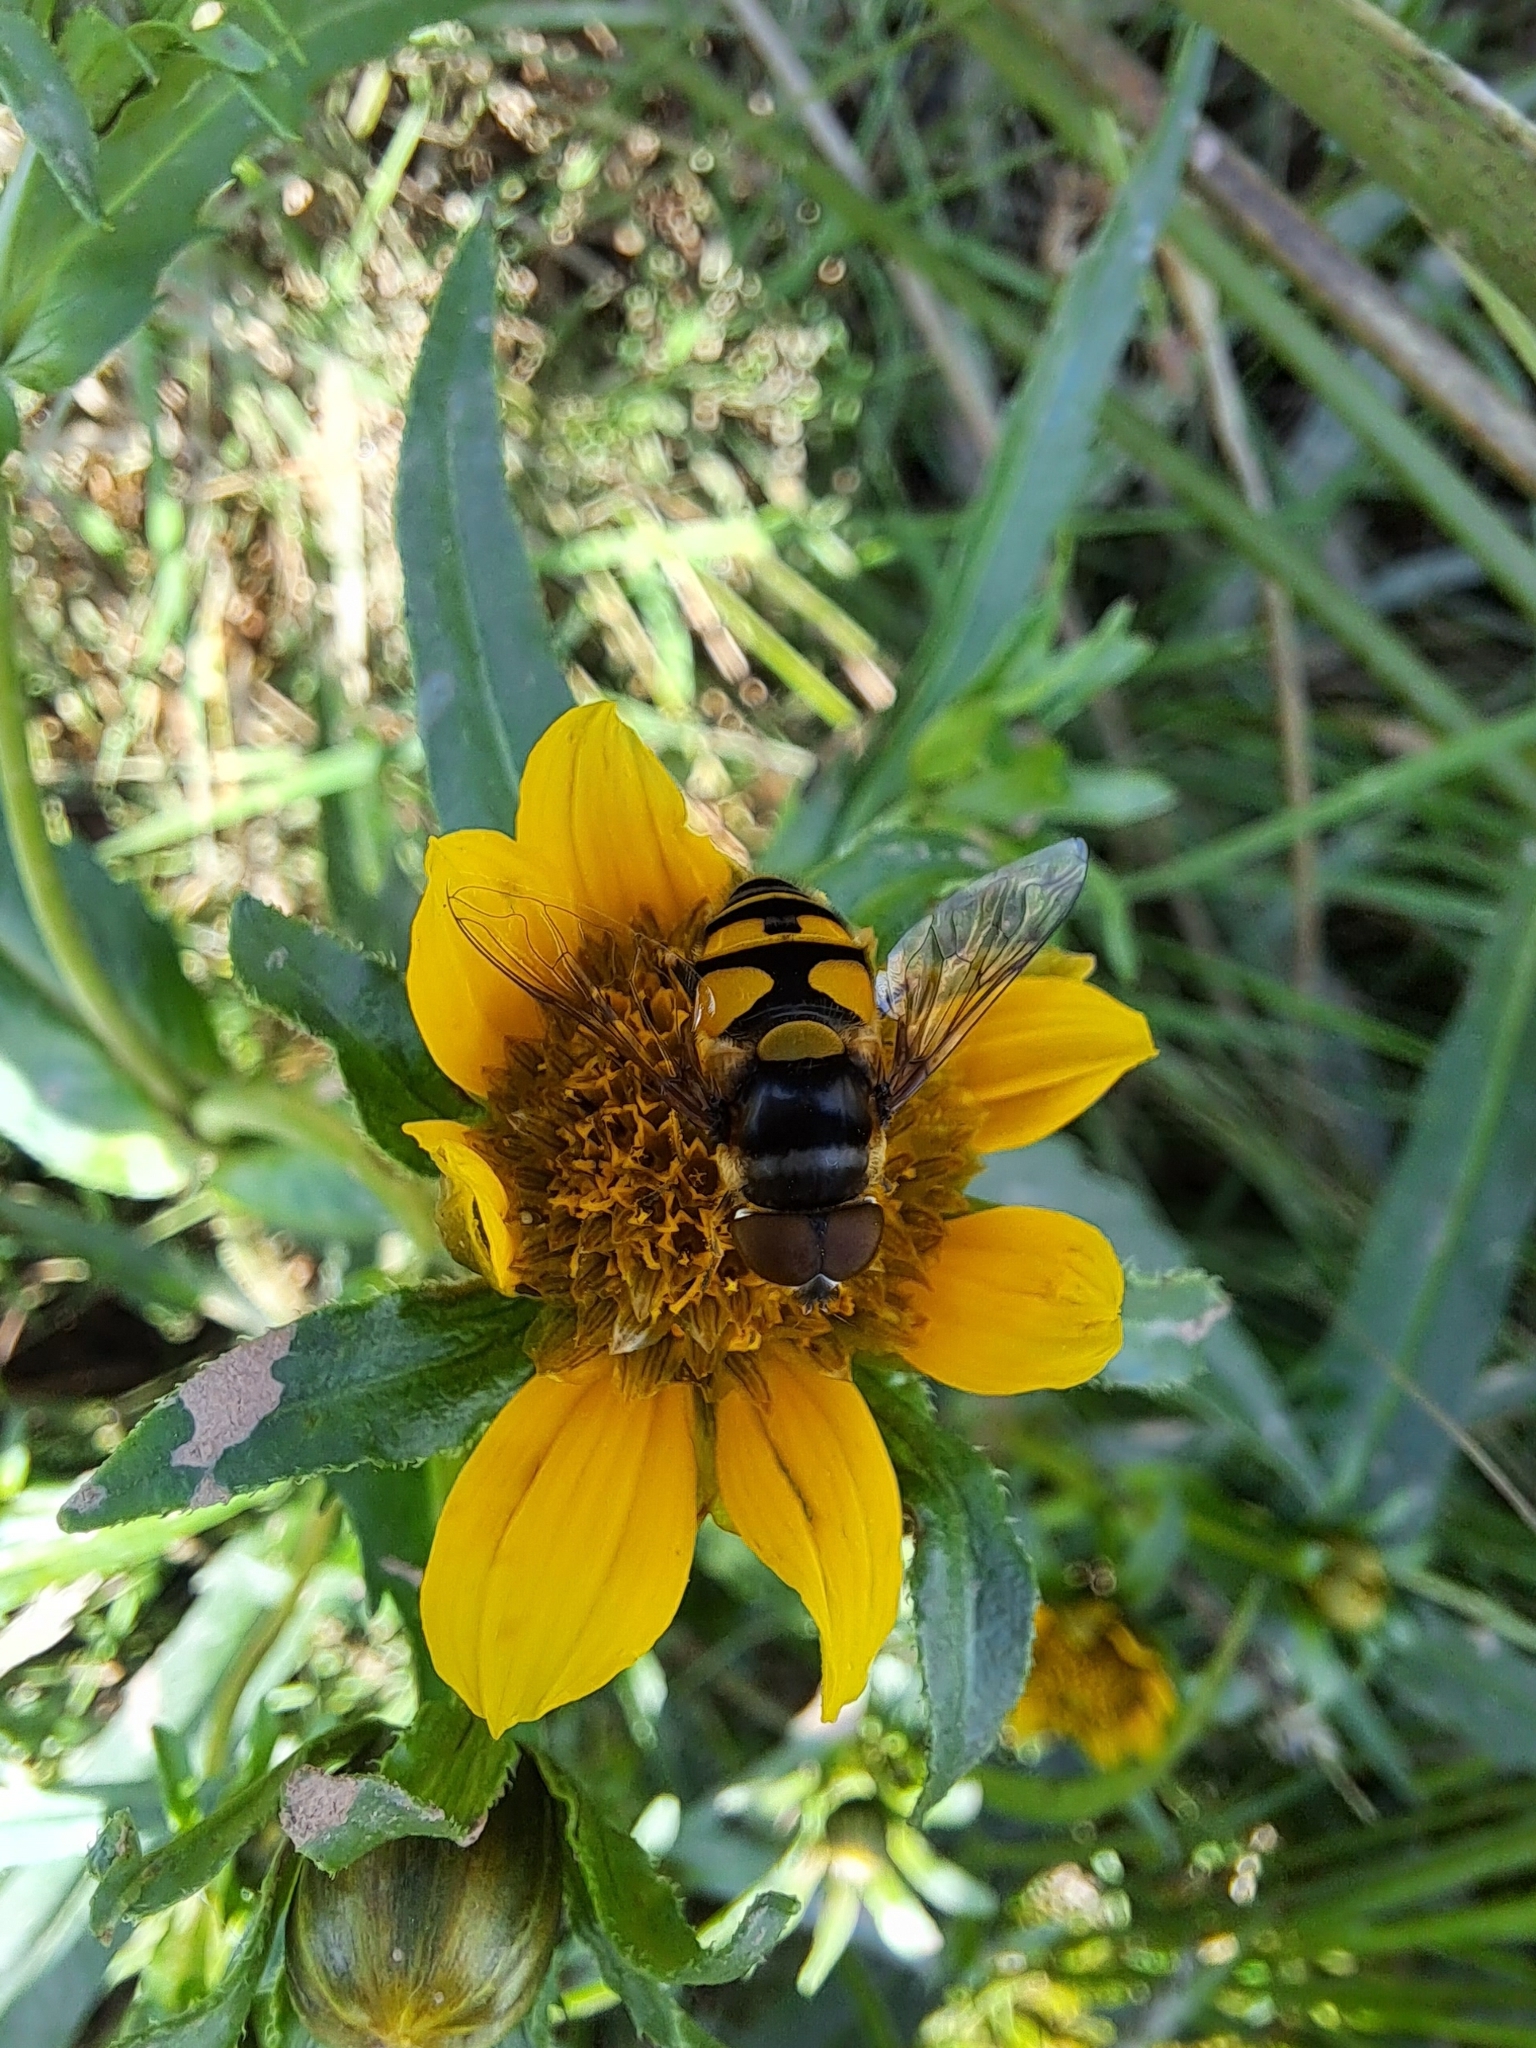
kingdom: Animalia
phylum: Arthropoda
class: Insecta
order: Diptera
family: Syrphidae
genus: Eristalis
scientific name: Eristalis transversa
